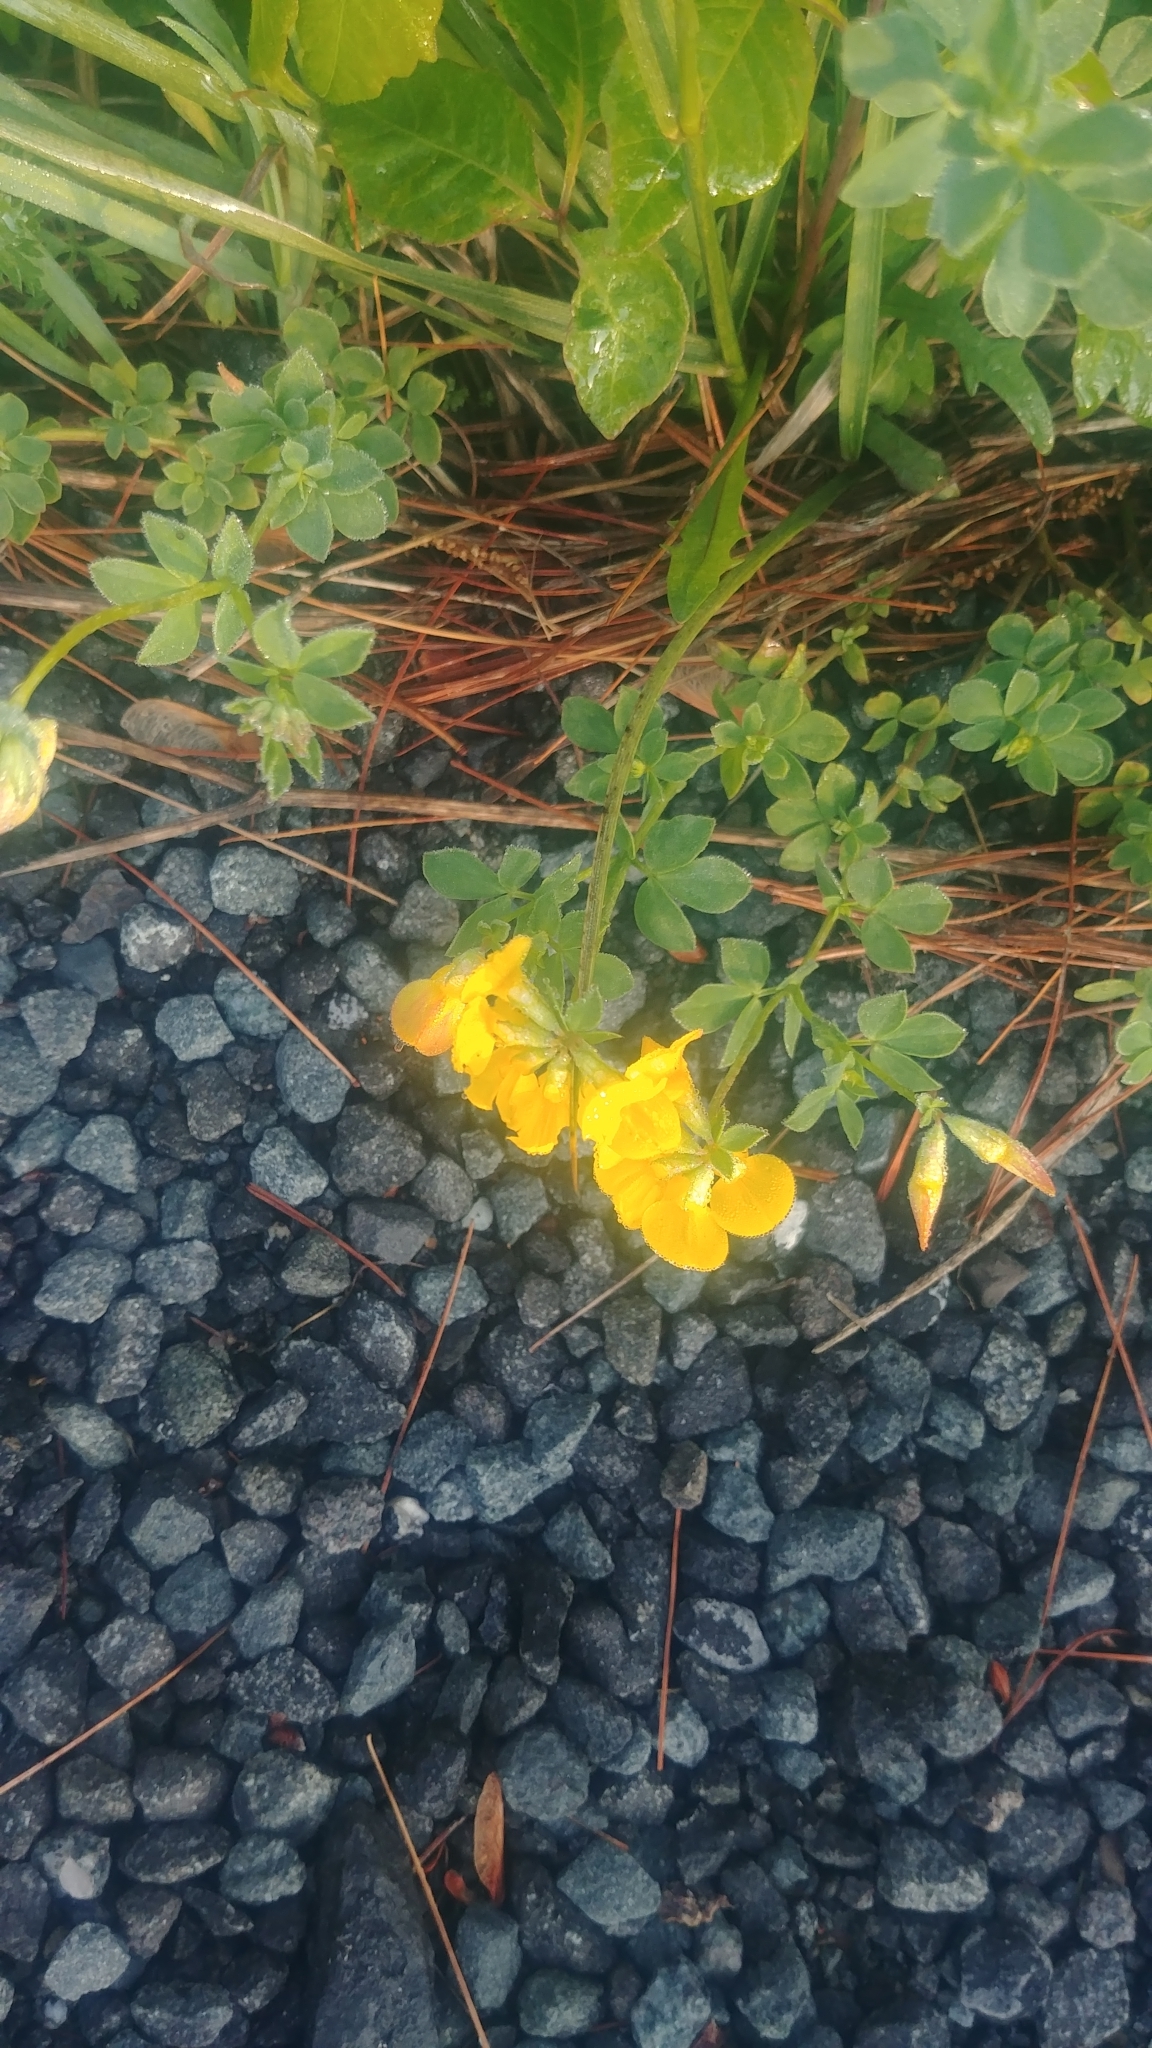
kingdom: Plantae
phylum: Tracheophyta
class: Magnoliopsida
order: Fabales
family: Fabaceae
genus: Lotus
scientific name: Lotus corniculatus
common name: Common bird's-foot-trefoil
